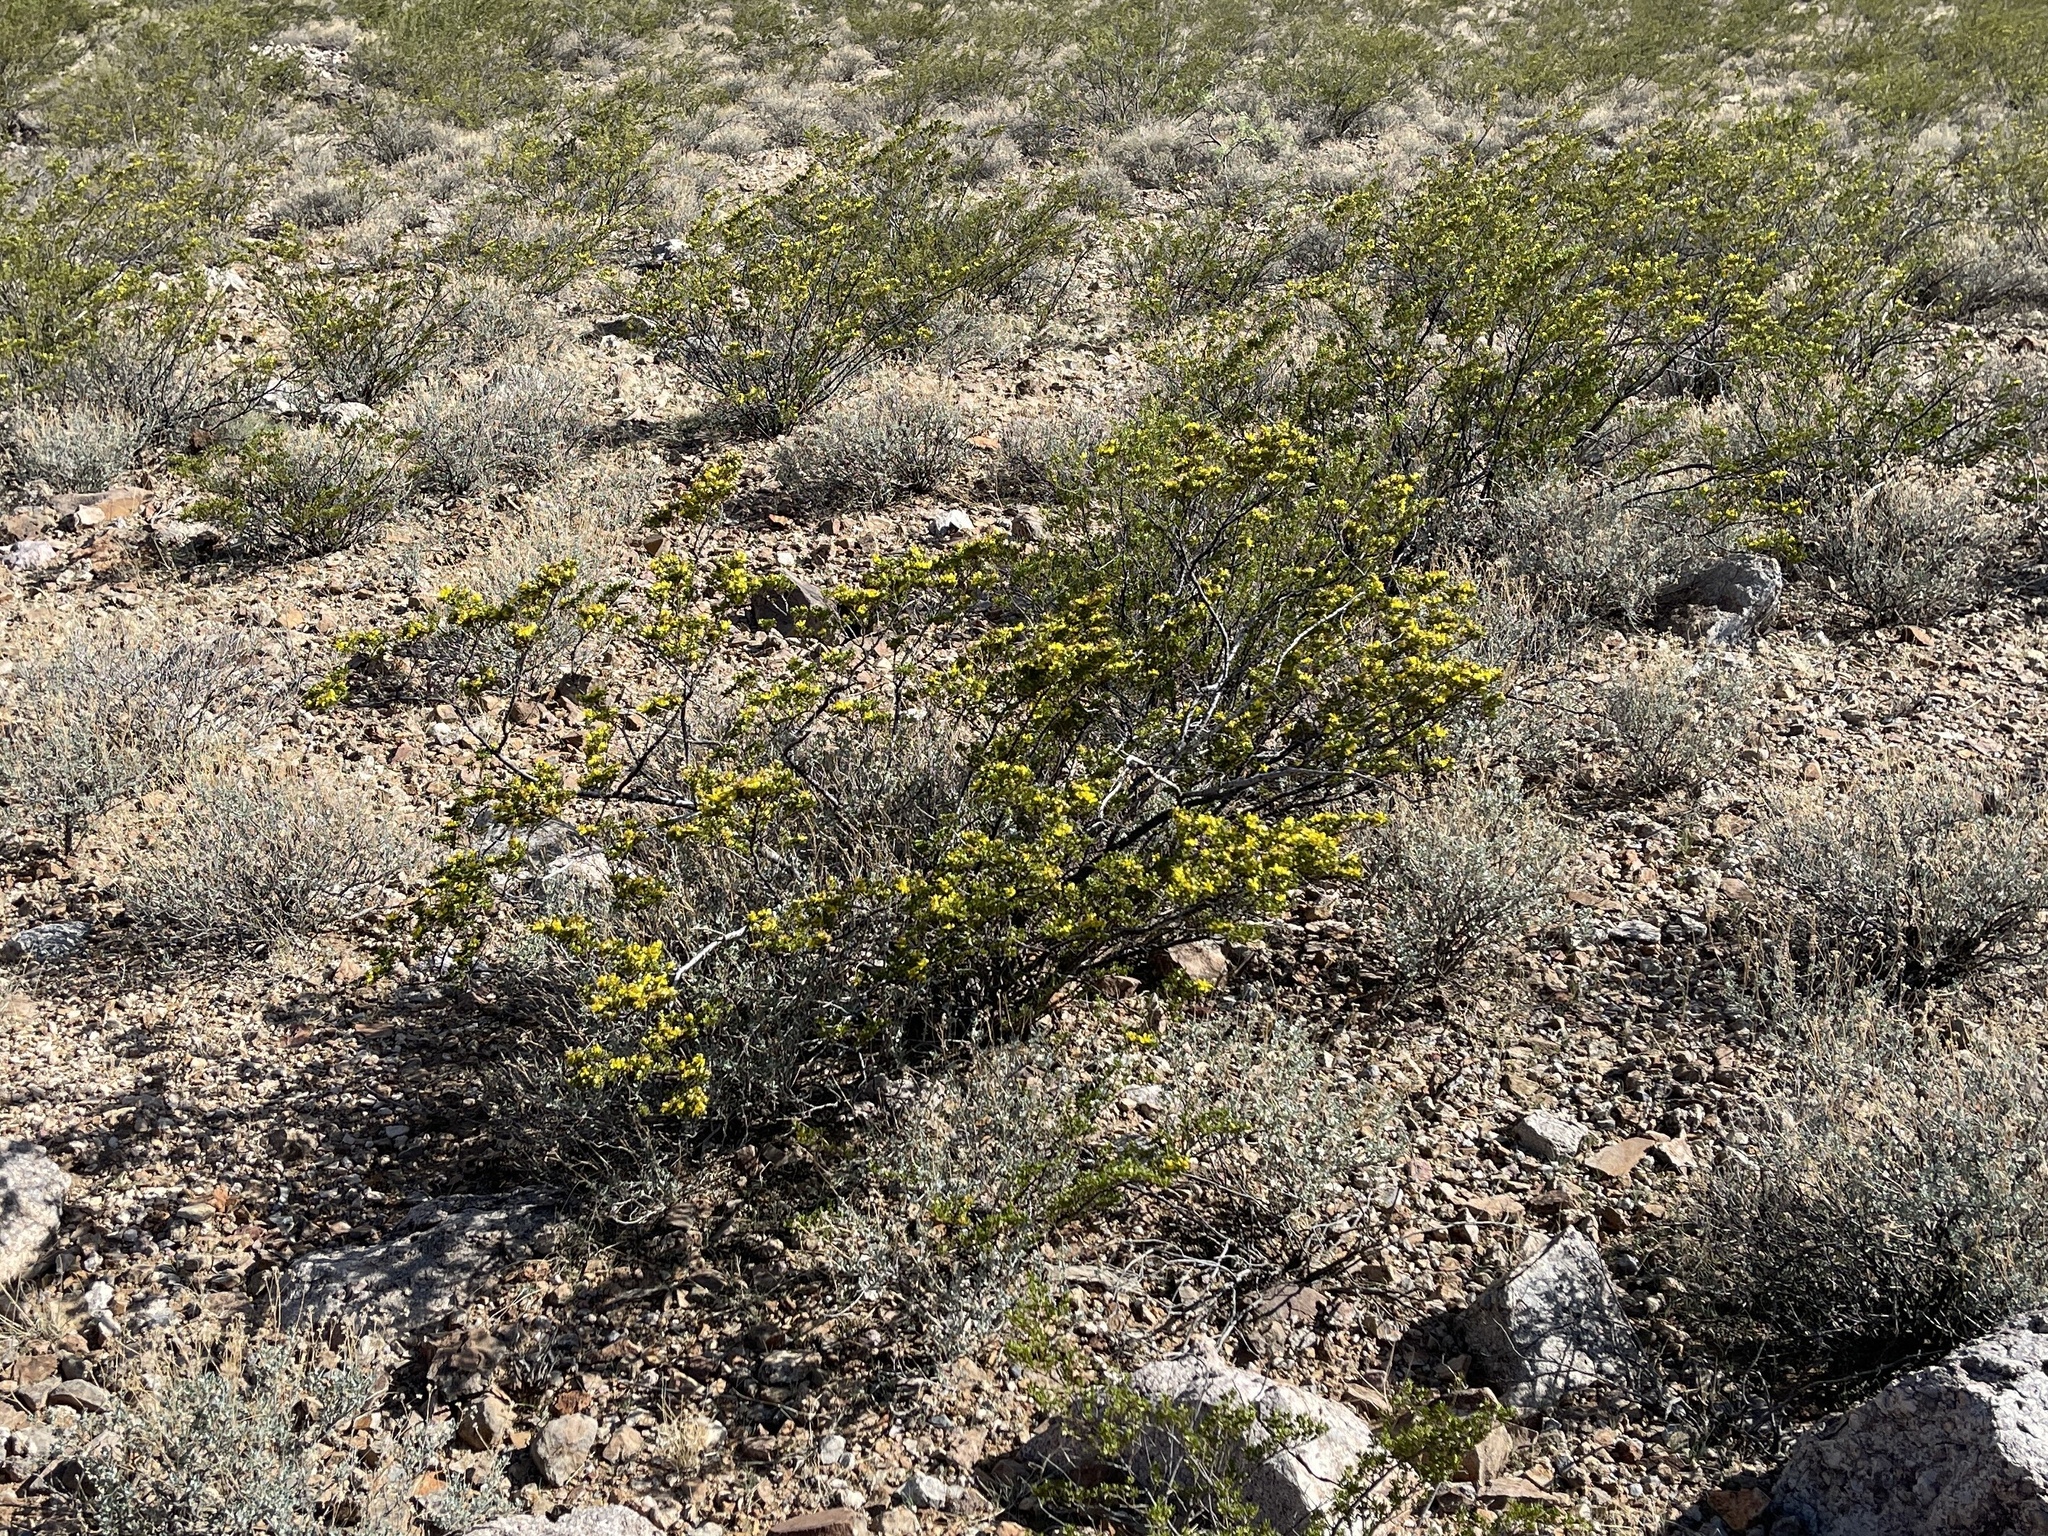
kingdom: Plantae
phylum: Tracheophyta
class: Magnoliopsida
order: Zygophyllales
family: Zygophyllaceae
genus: Larrea
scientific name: Larrea tridentata
